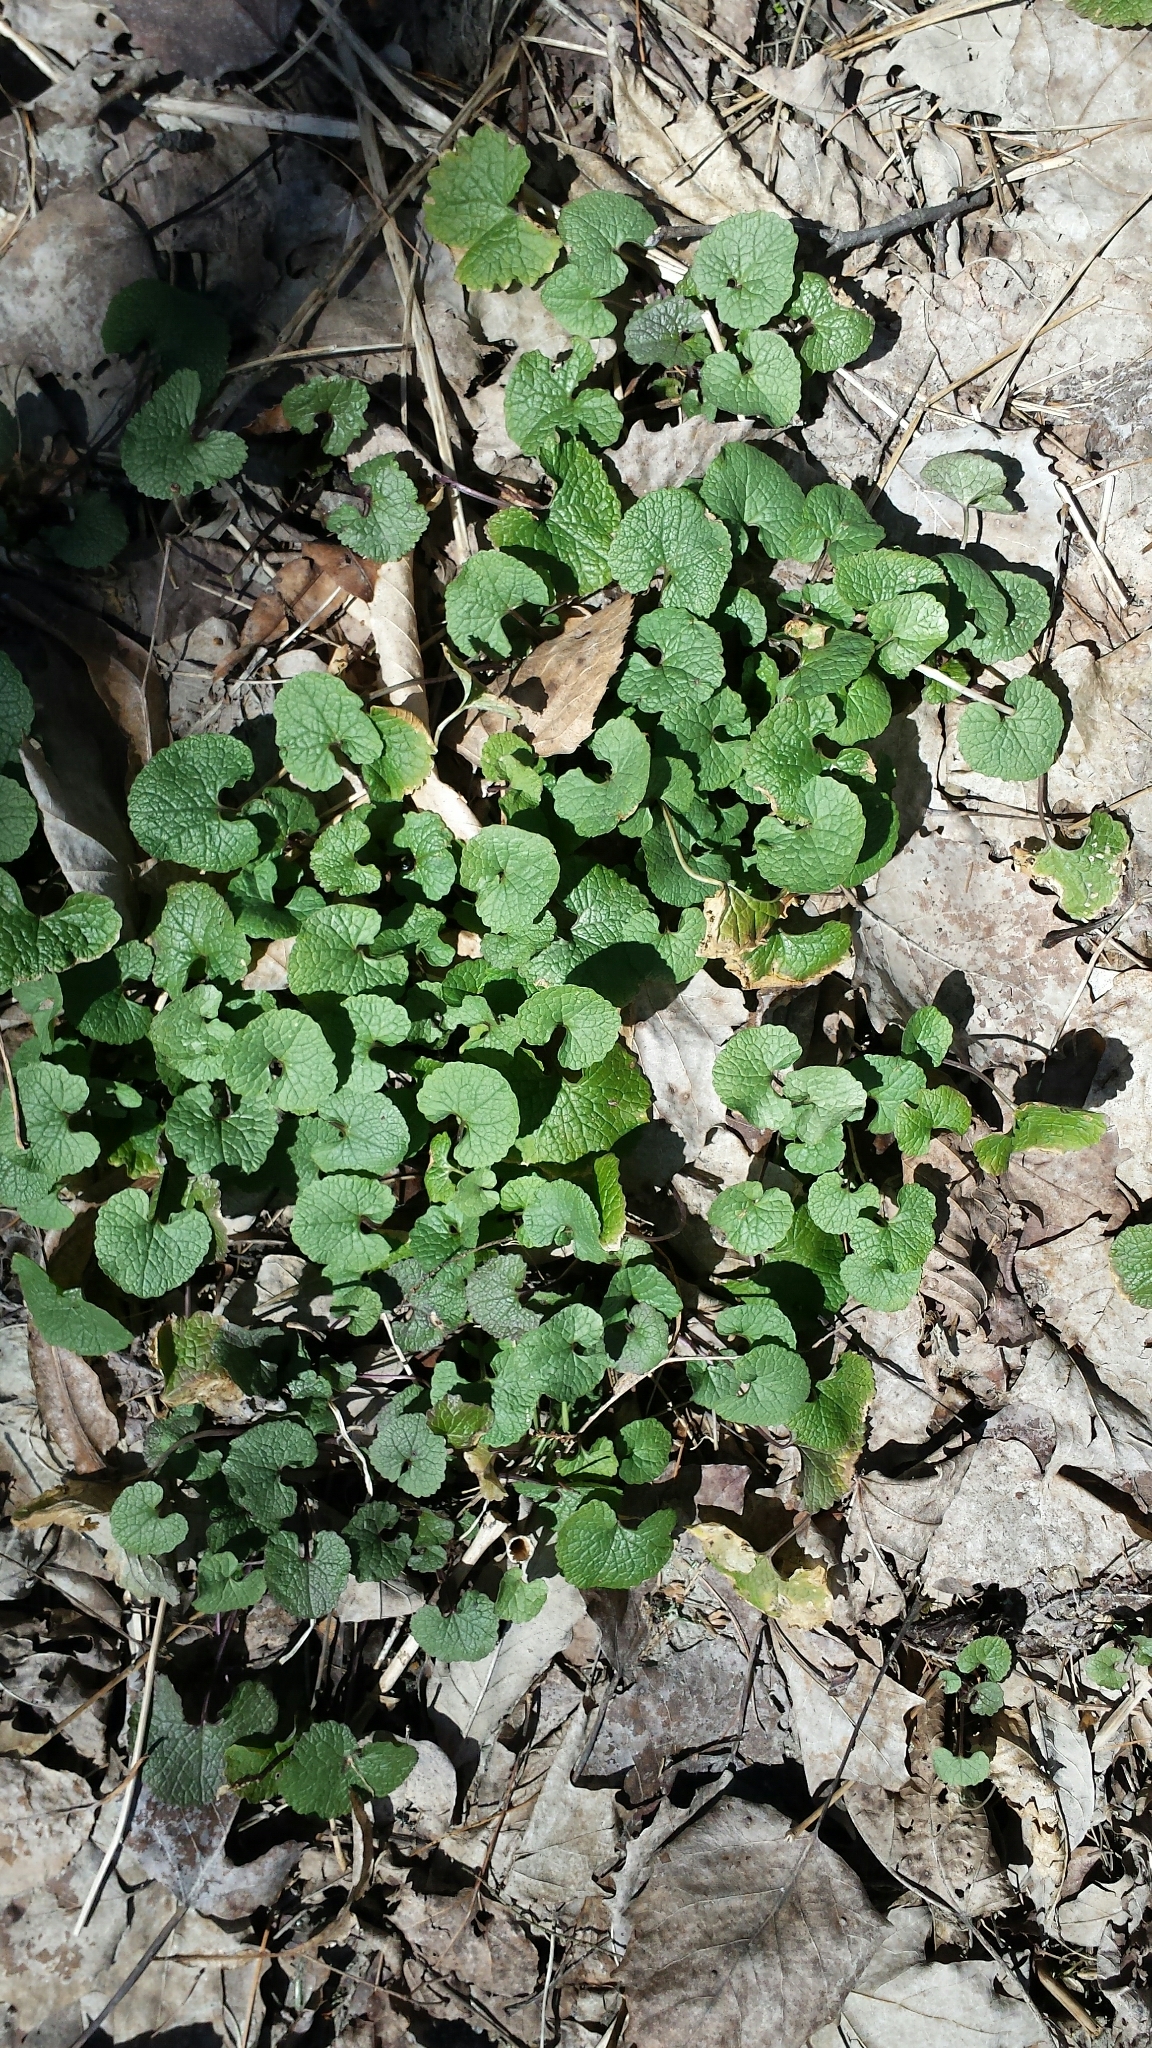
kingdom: Plantae
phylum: Tracheophyta
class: Magnoliopsida
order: Brassicales
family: Brassicaceae
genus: Alliaria
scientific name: Alliaria petiolata
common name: Garlic mustard
